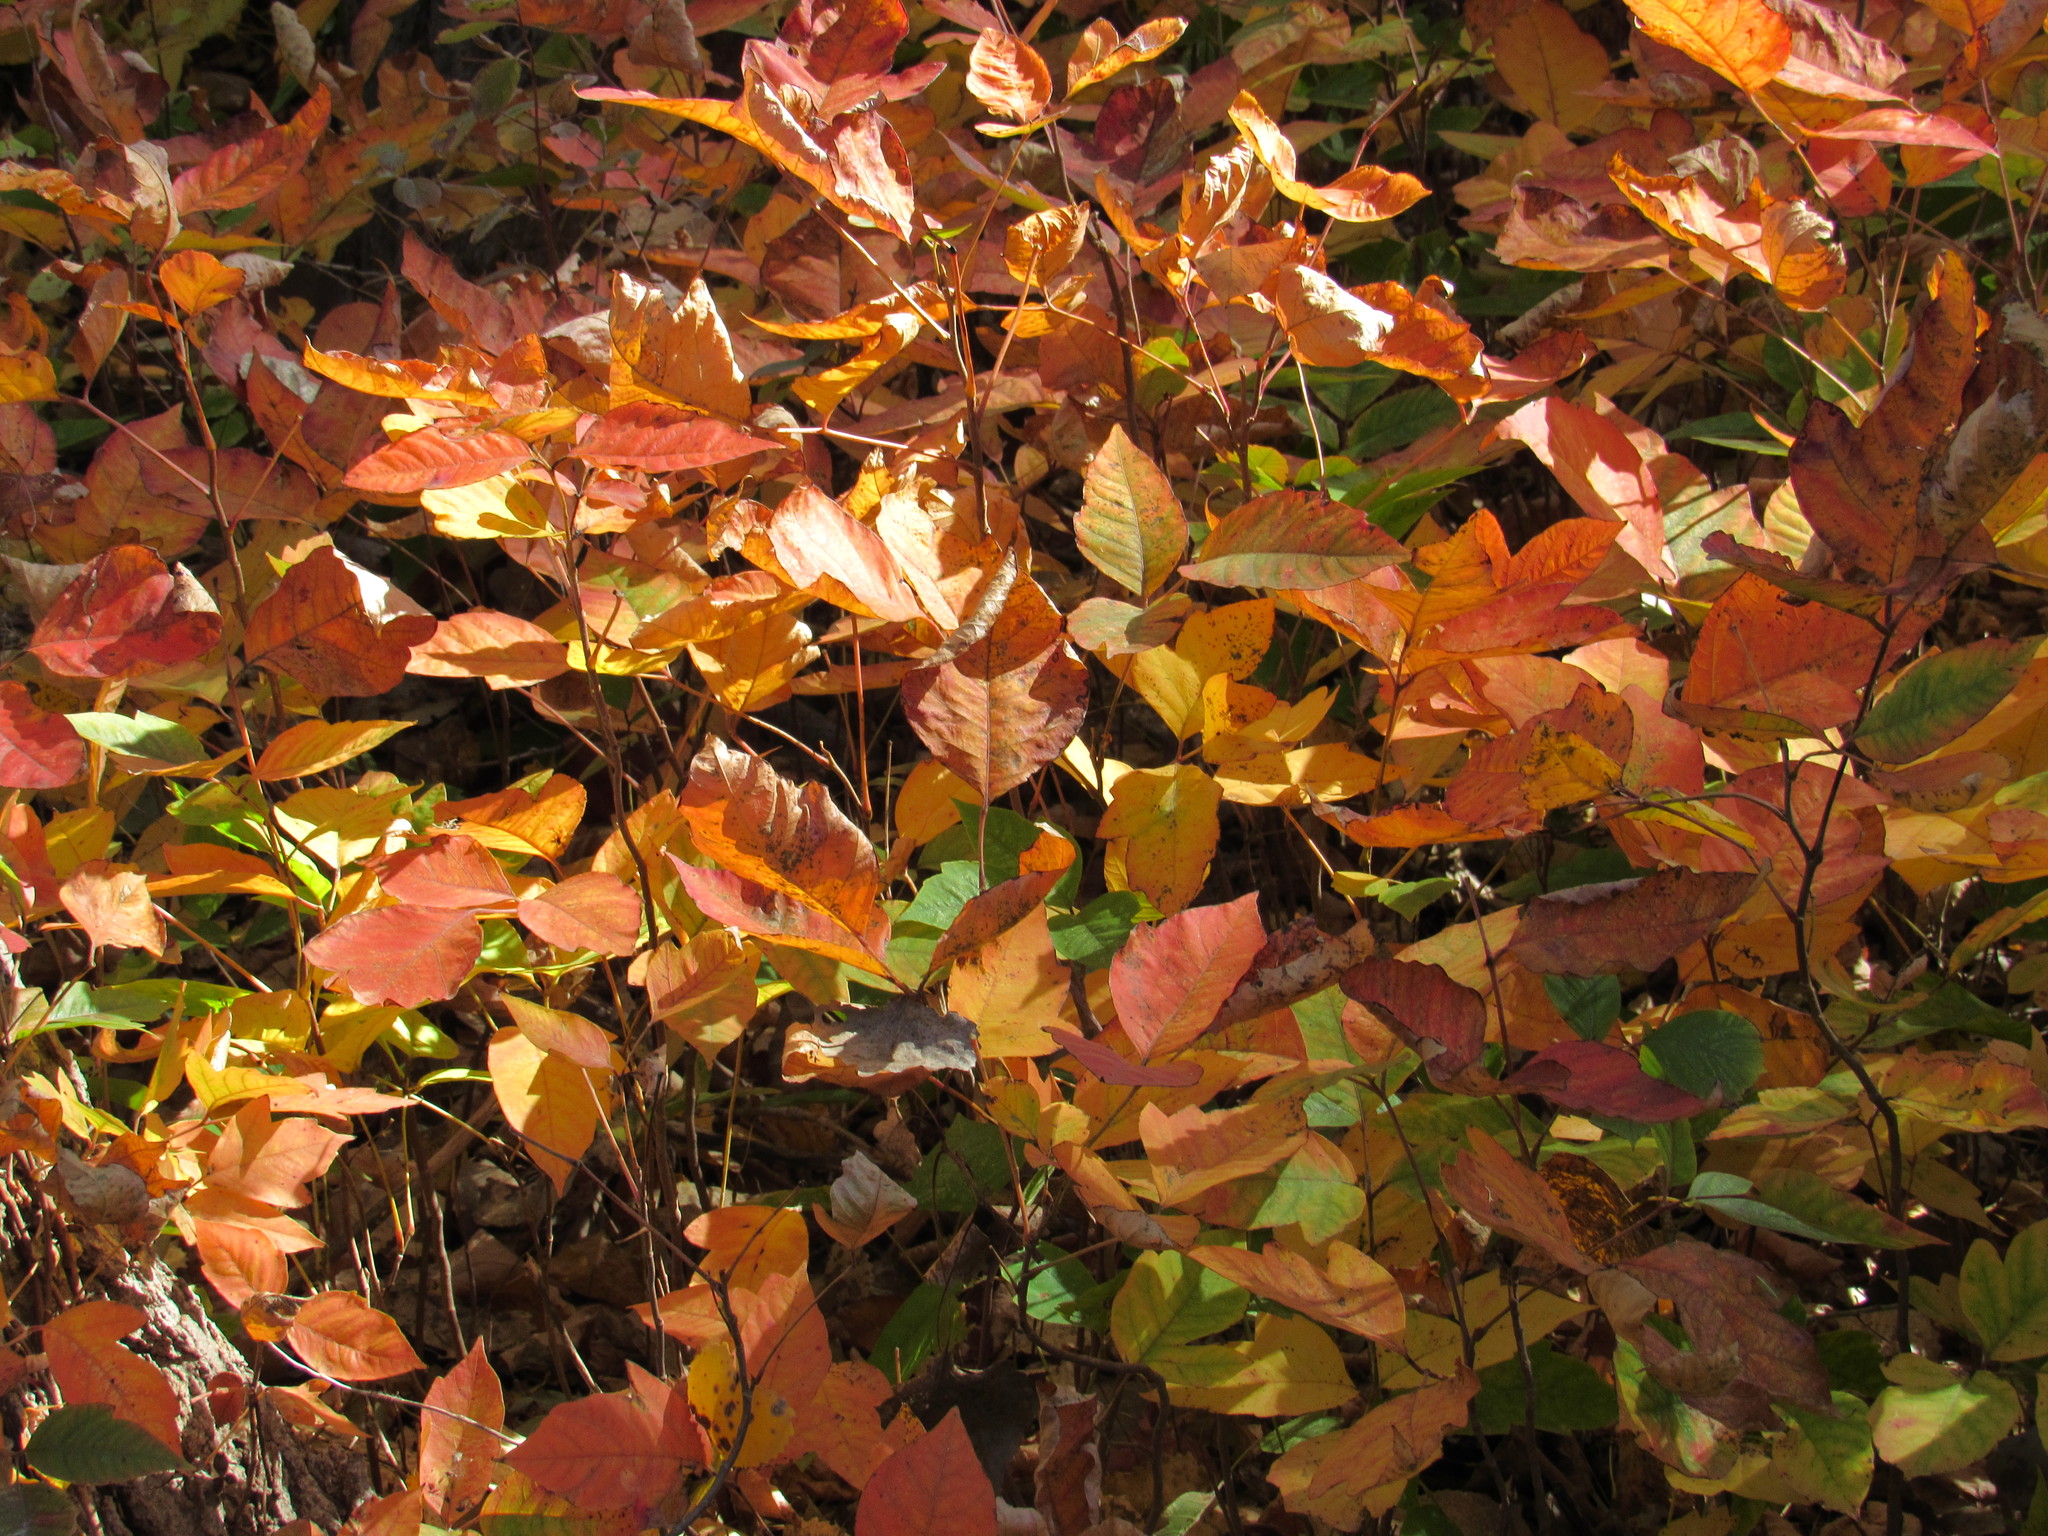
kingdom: Plantae
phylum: Tracheophyta
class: Magnoliopsida
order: Sapindales
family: Anacardiaceae
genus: Toxicodendron
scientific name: Toxicodendron radicans
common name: Poison ivy
